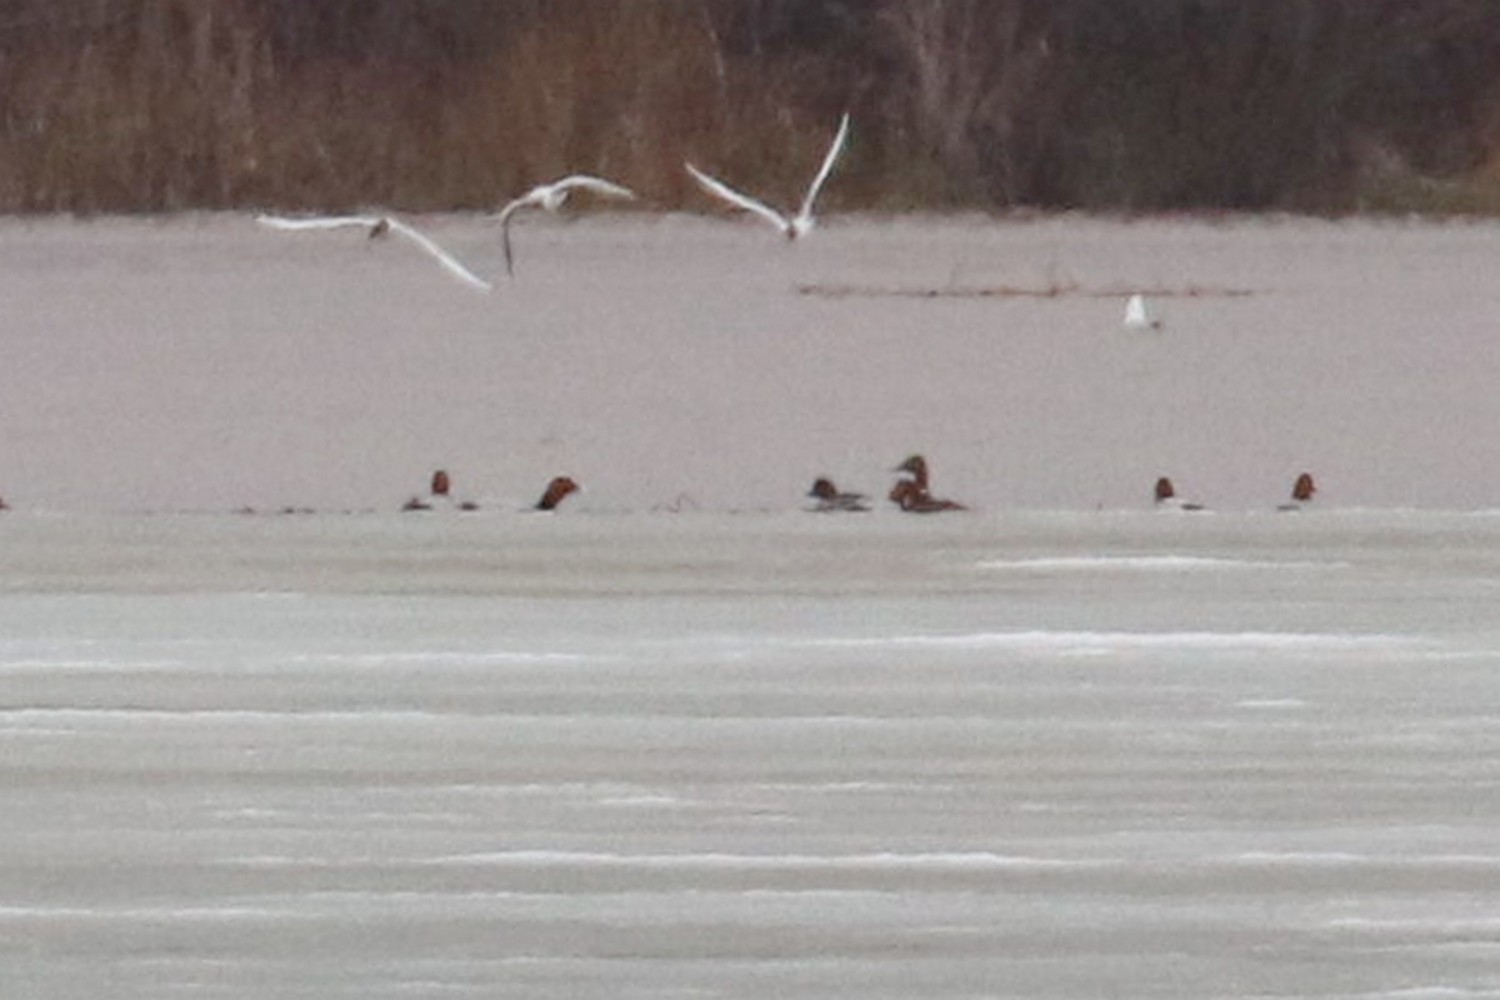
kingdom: Animalia
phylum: Chordata
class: Aves
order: Anseriformes
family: Anatidae
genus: Aythya
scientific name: Aythya ferina
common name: Common pochard
